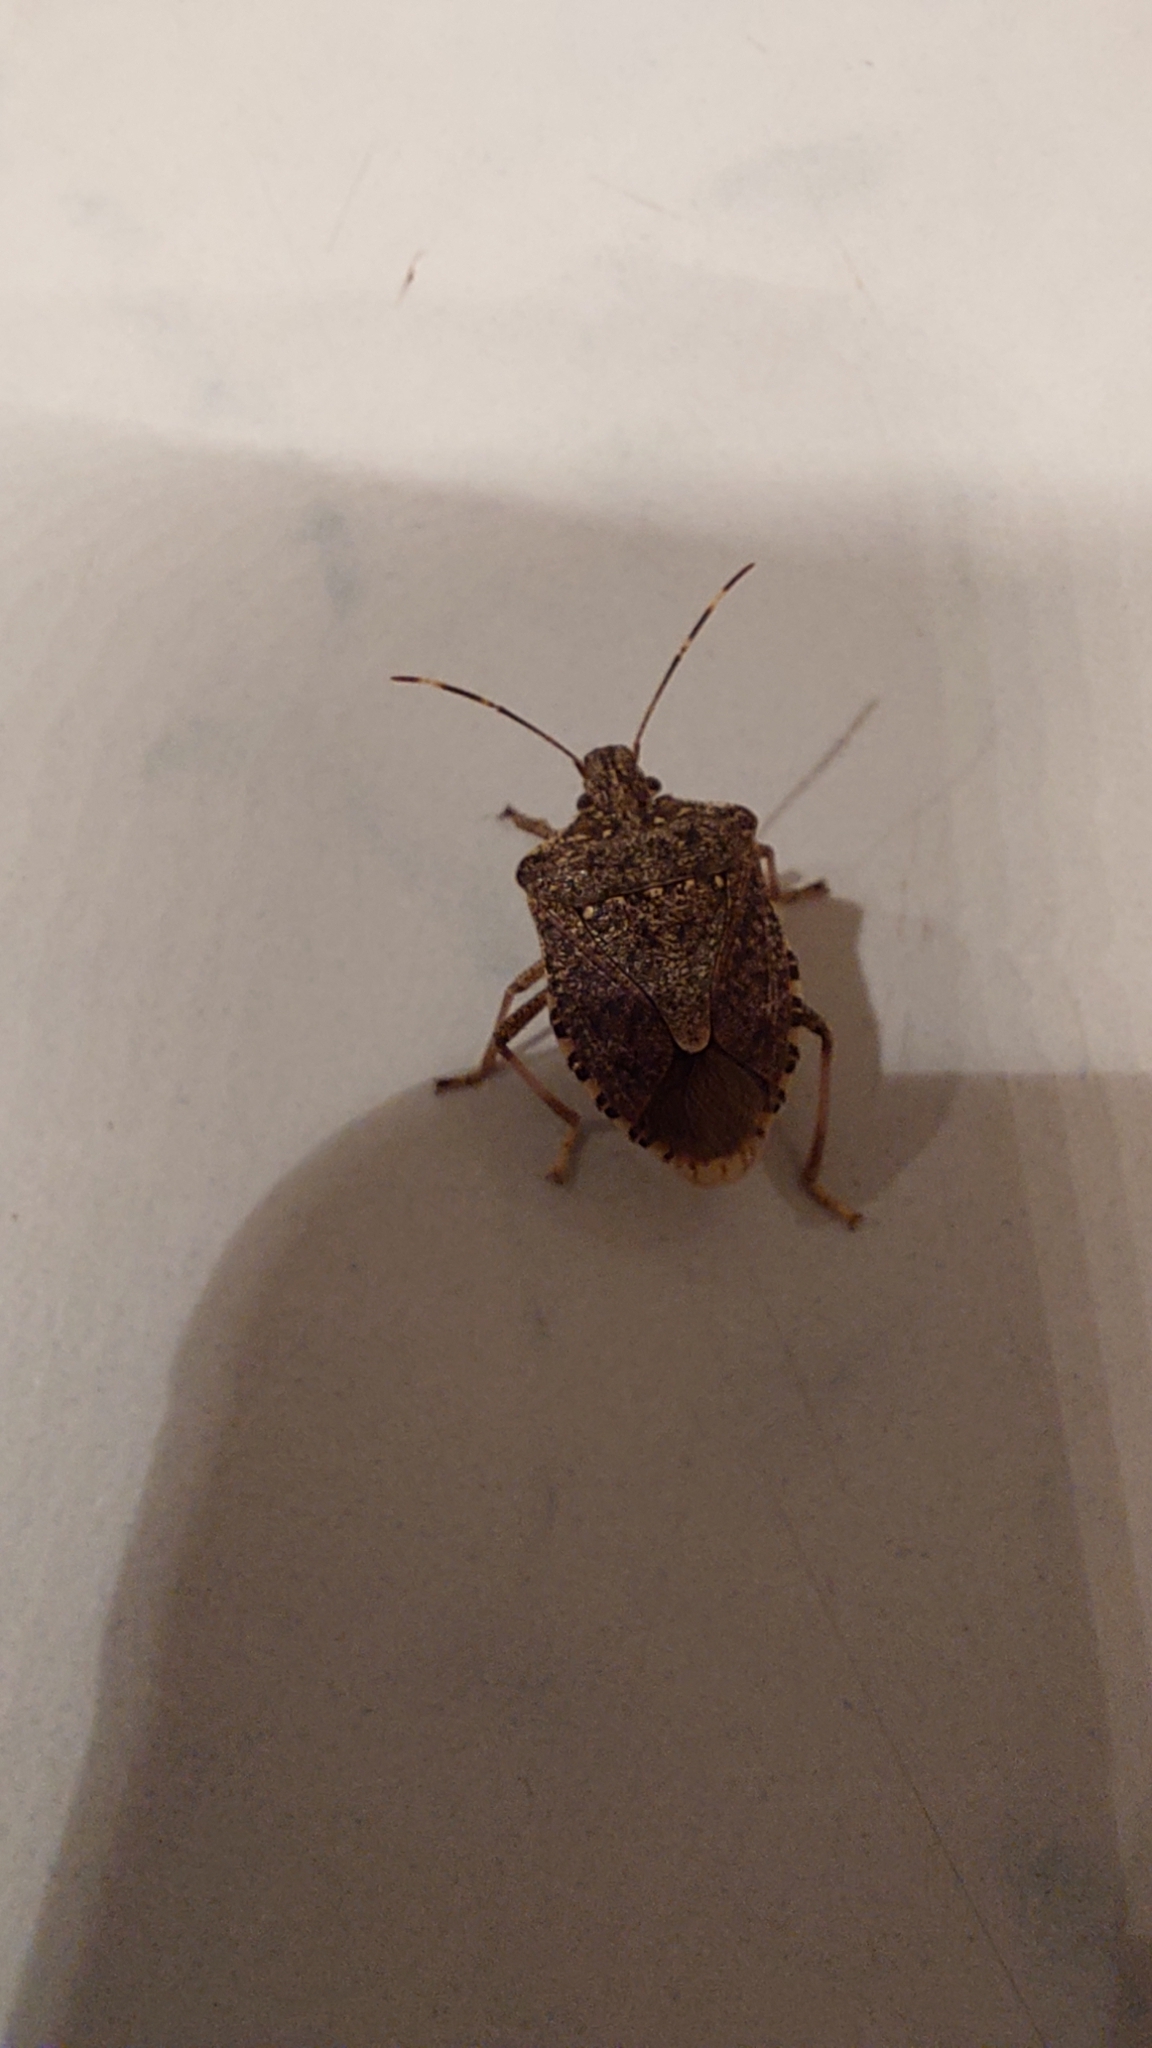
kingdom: Animalia
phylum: Arthropoda
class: Insecta
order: Hemiptera
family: Pentatomidae
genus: Halyomorpha
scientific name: Halyomorpha halys
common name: Brown marmorated stink bug
